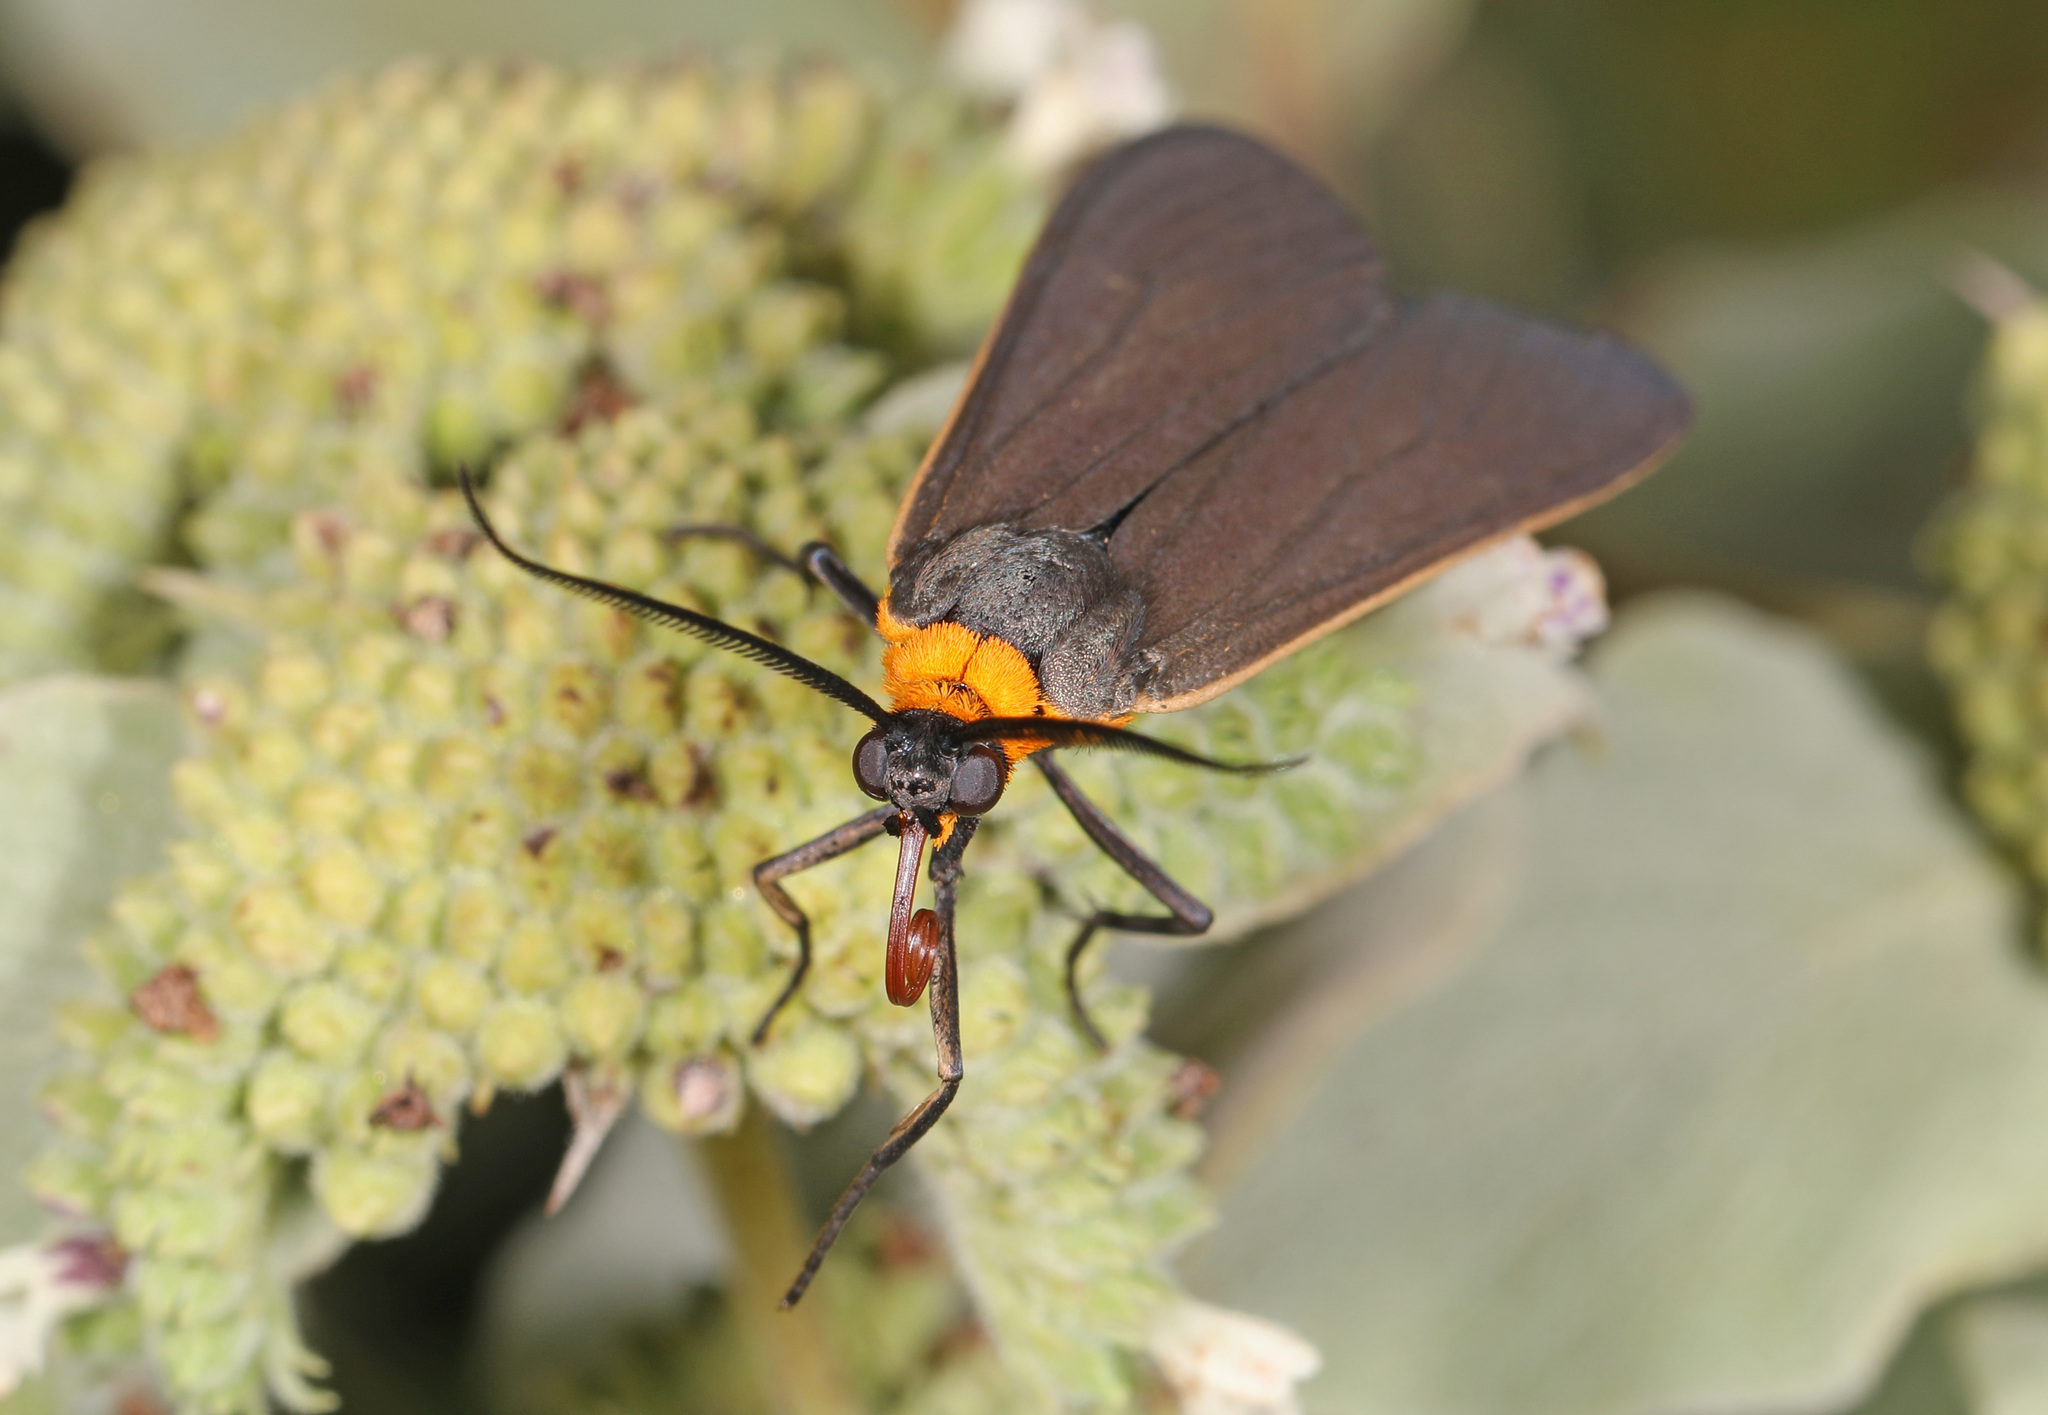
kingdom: Animalia
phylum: Arthropoda
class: Insecta
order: Lepidoptera
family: Erebidae
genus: Cisseps
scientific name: Cisseps fulvicollis
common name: Yellow-collared scape moth
